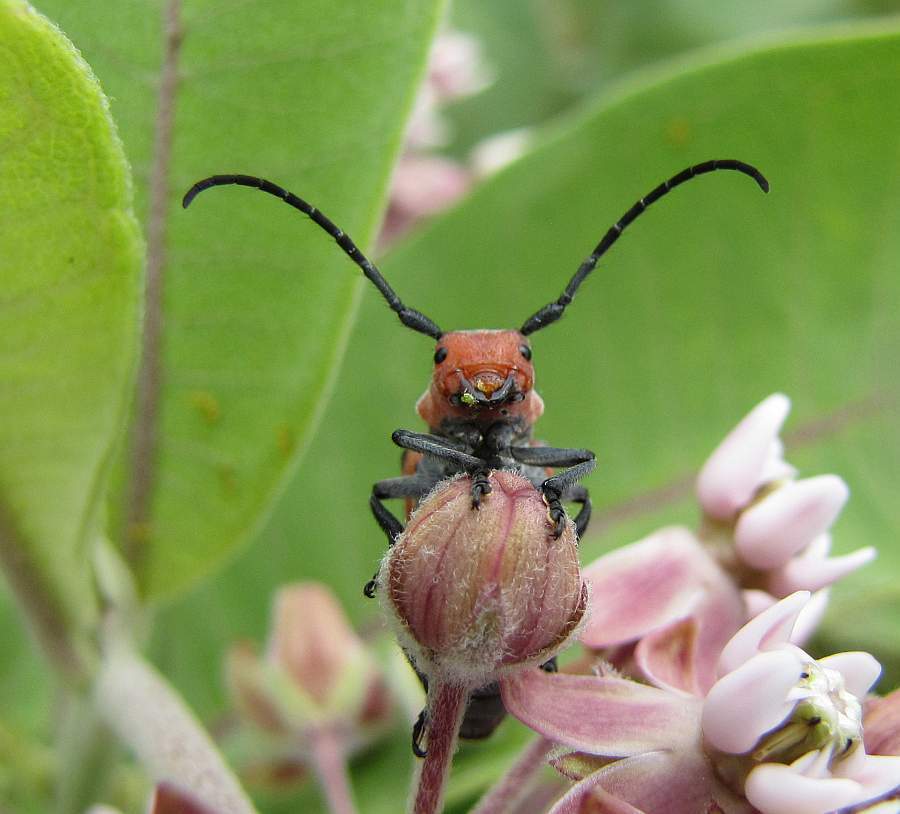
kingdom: Animalia
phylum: Arthropoda
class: Insecta
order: Coleoptera
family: Cerambycidae
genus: Tetraopes
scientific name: Tetraopes tetrophthalmus
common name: Red milkweed beetle
